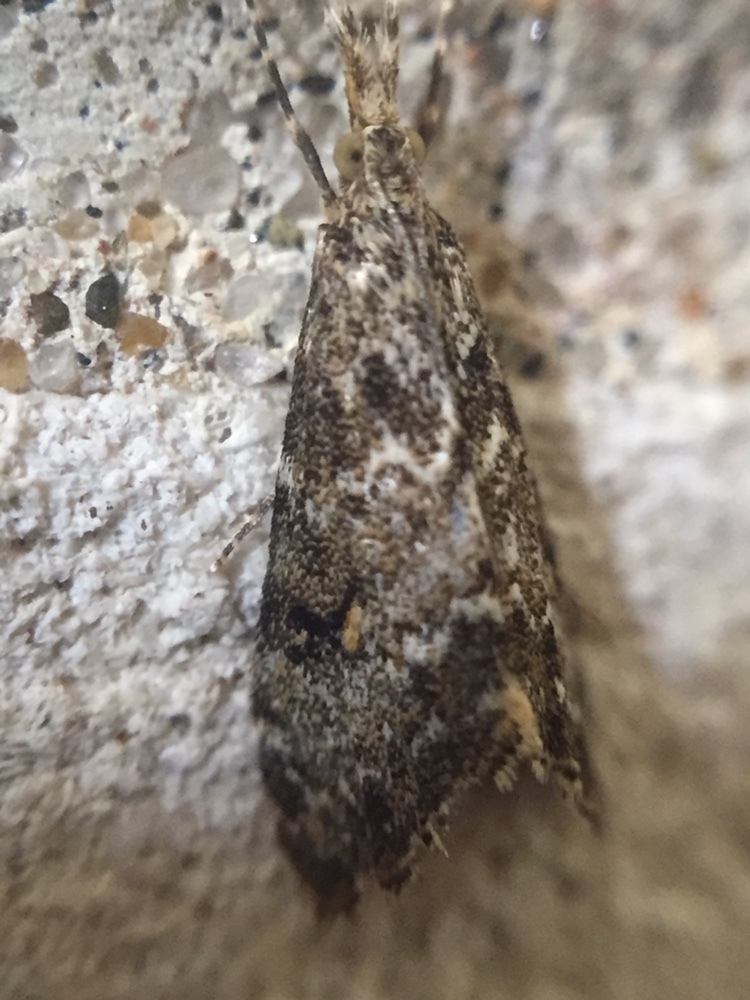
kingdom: Animalia
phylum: Arthropoda
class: Insecta
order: Lepidoptera
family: Crambidae
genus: Glaucocharis
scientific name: Glaucocharis elaina
